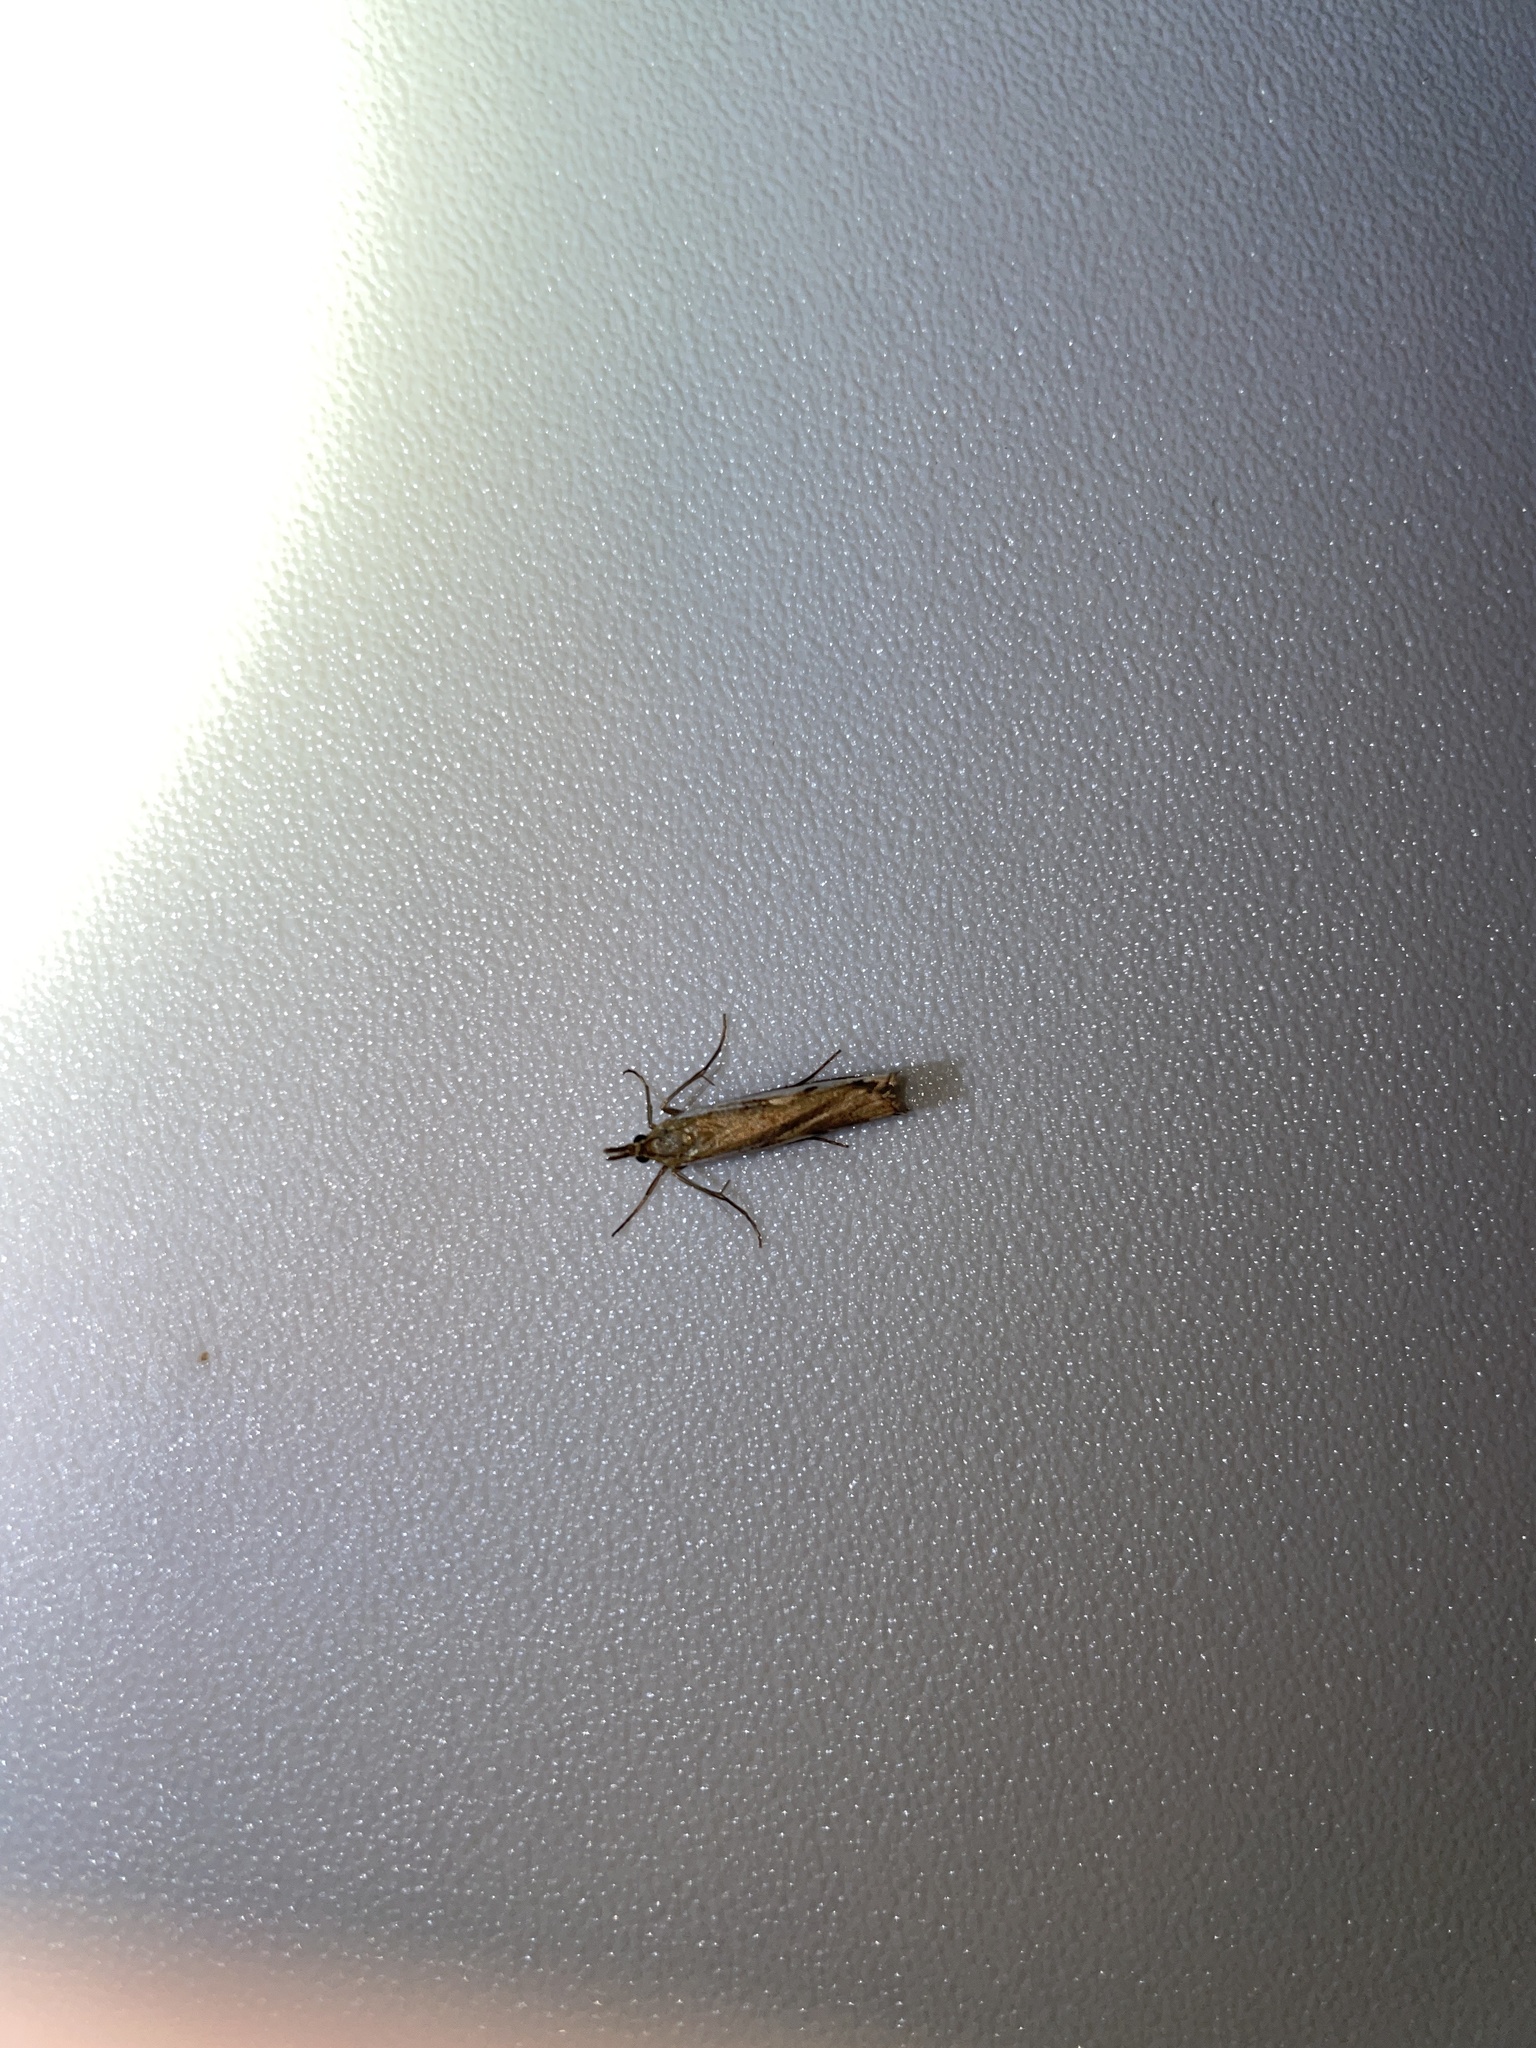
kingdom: Animalia
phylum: Arthropoda
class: Insecta
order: Lepidoptera
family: Crambidae
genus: Orocrambus
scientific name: Orocrambus flexuosellus
